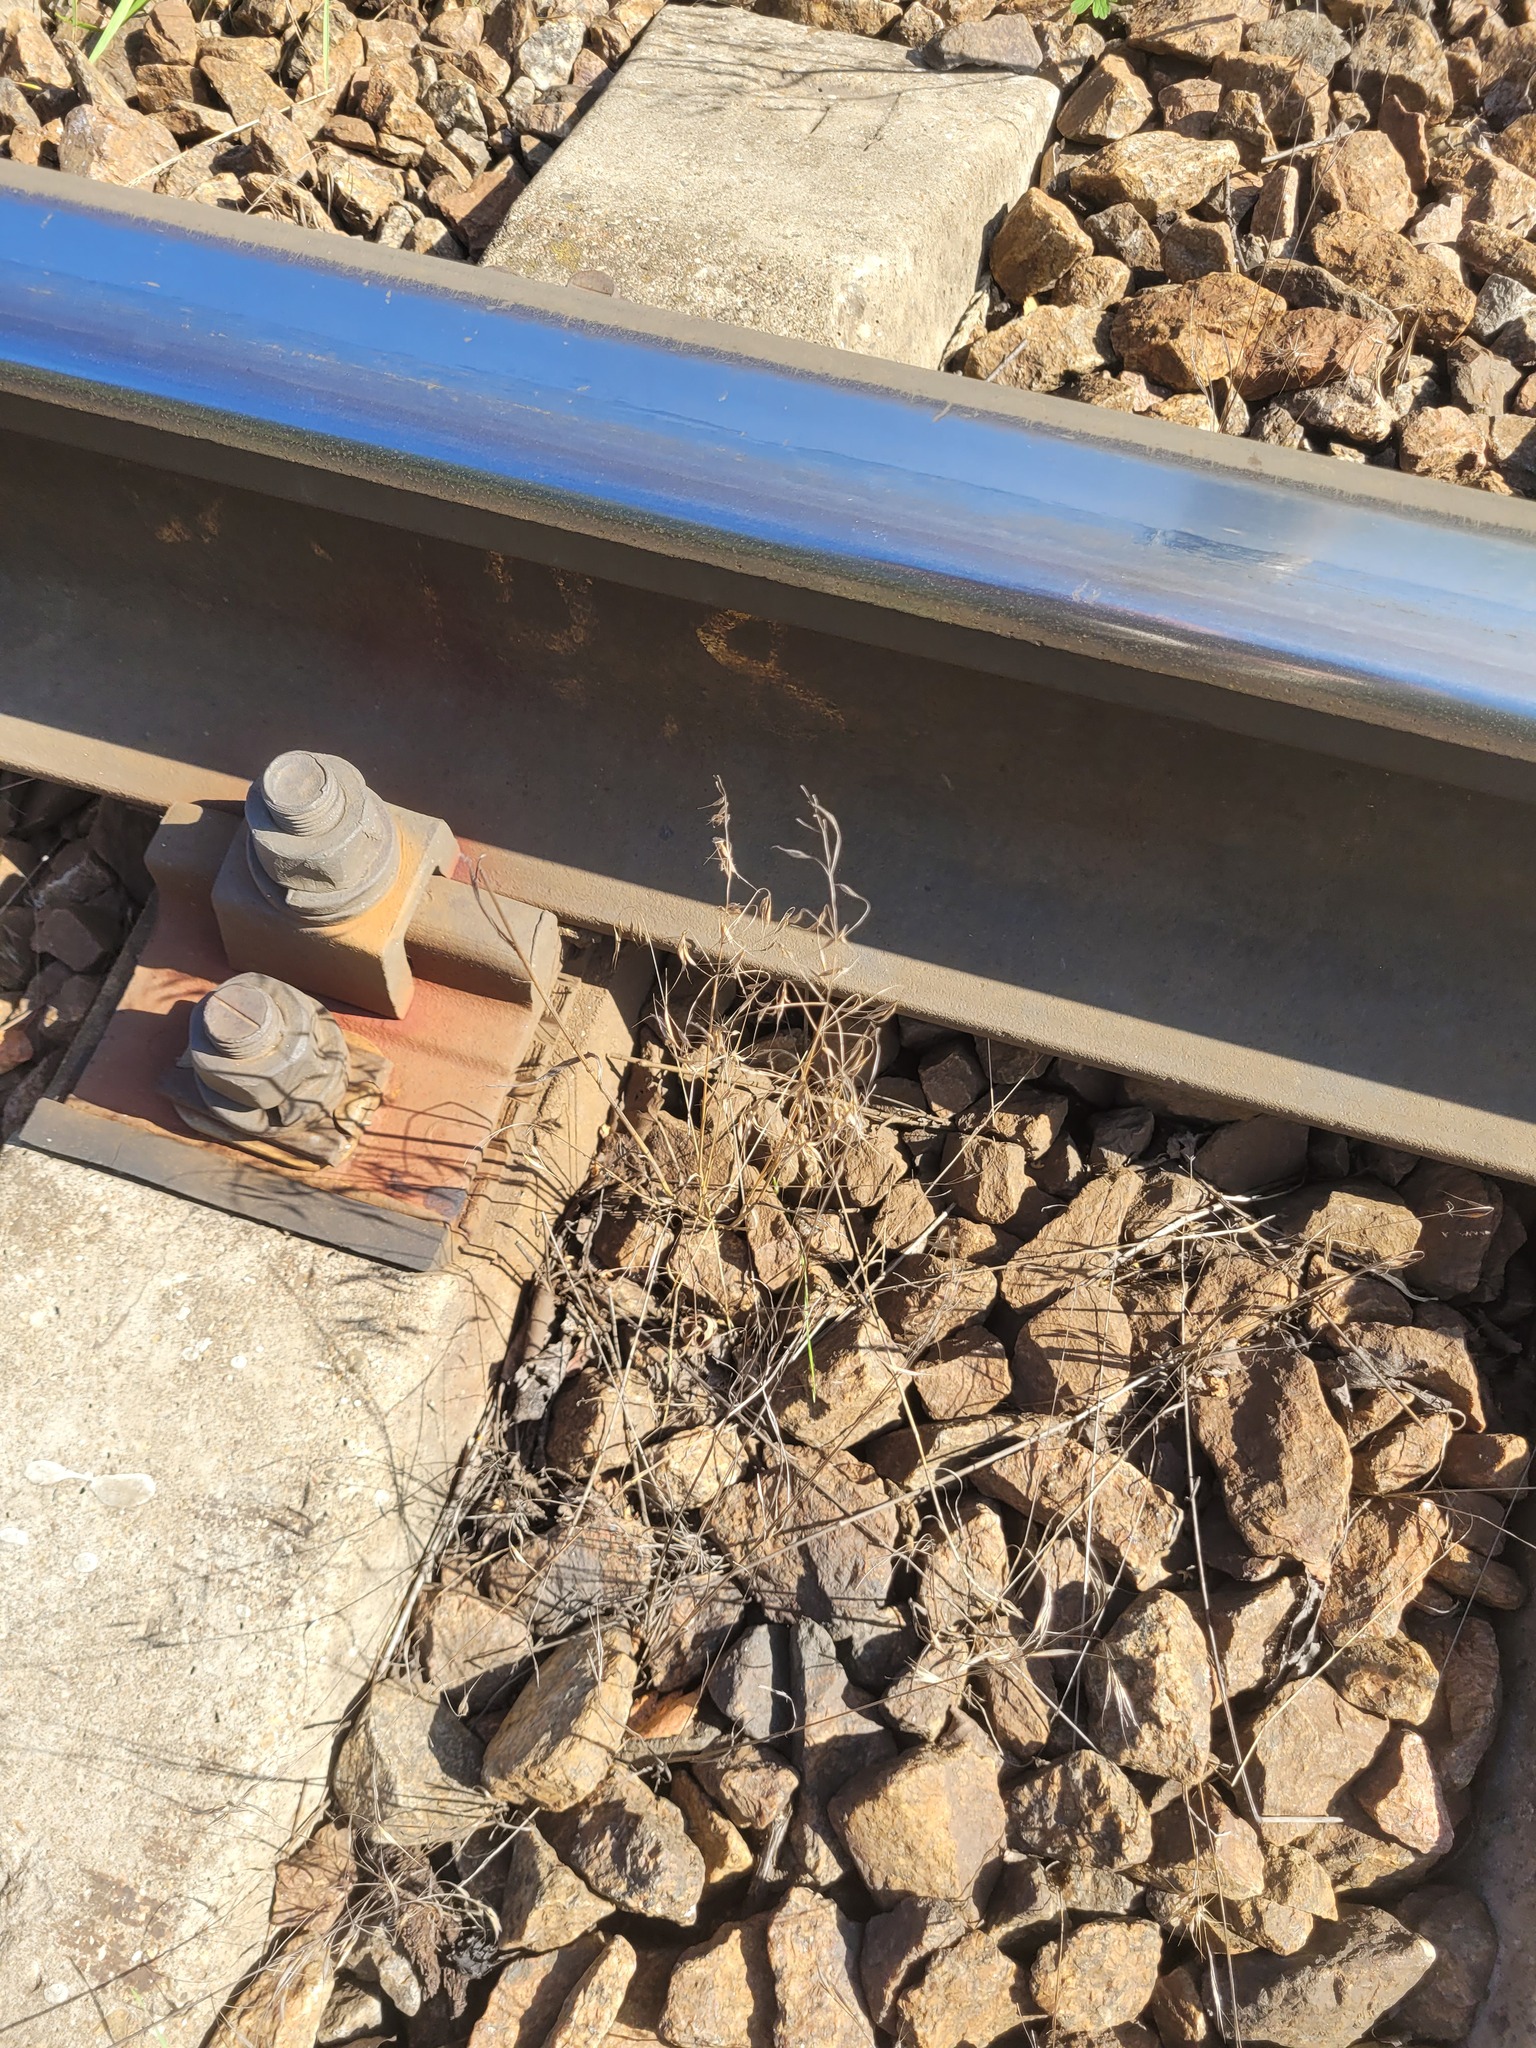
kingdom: Plantae
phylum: Tracheophyta
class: Liliopsida
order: Poales
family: Poaceae
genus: Bromus
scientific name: Bromus tectorum
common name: Cheatgrass
